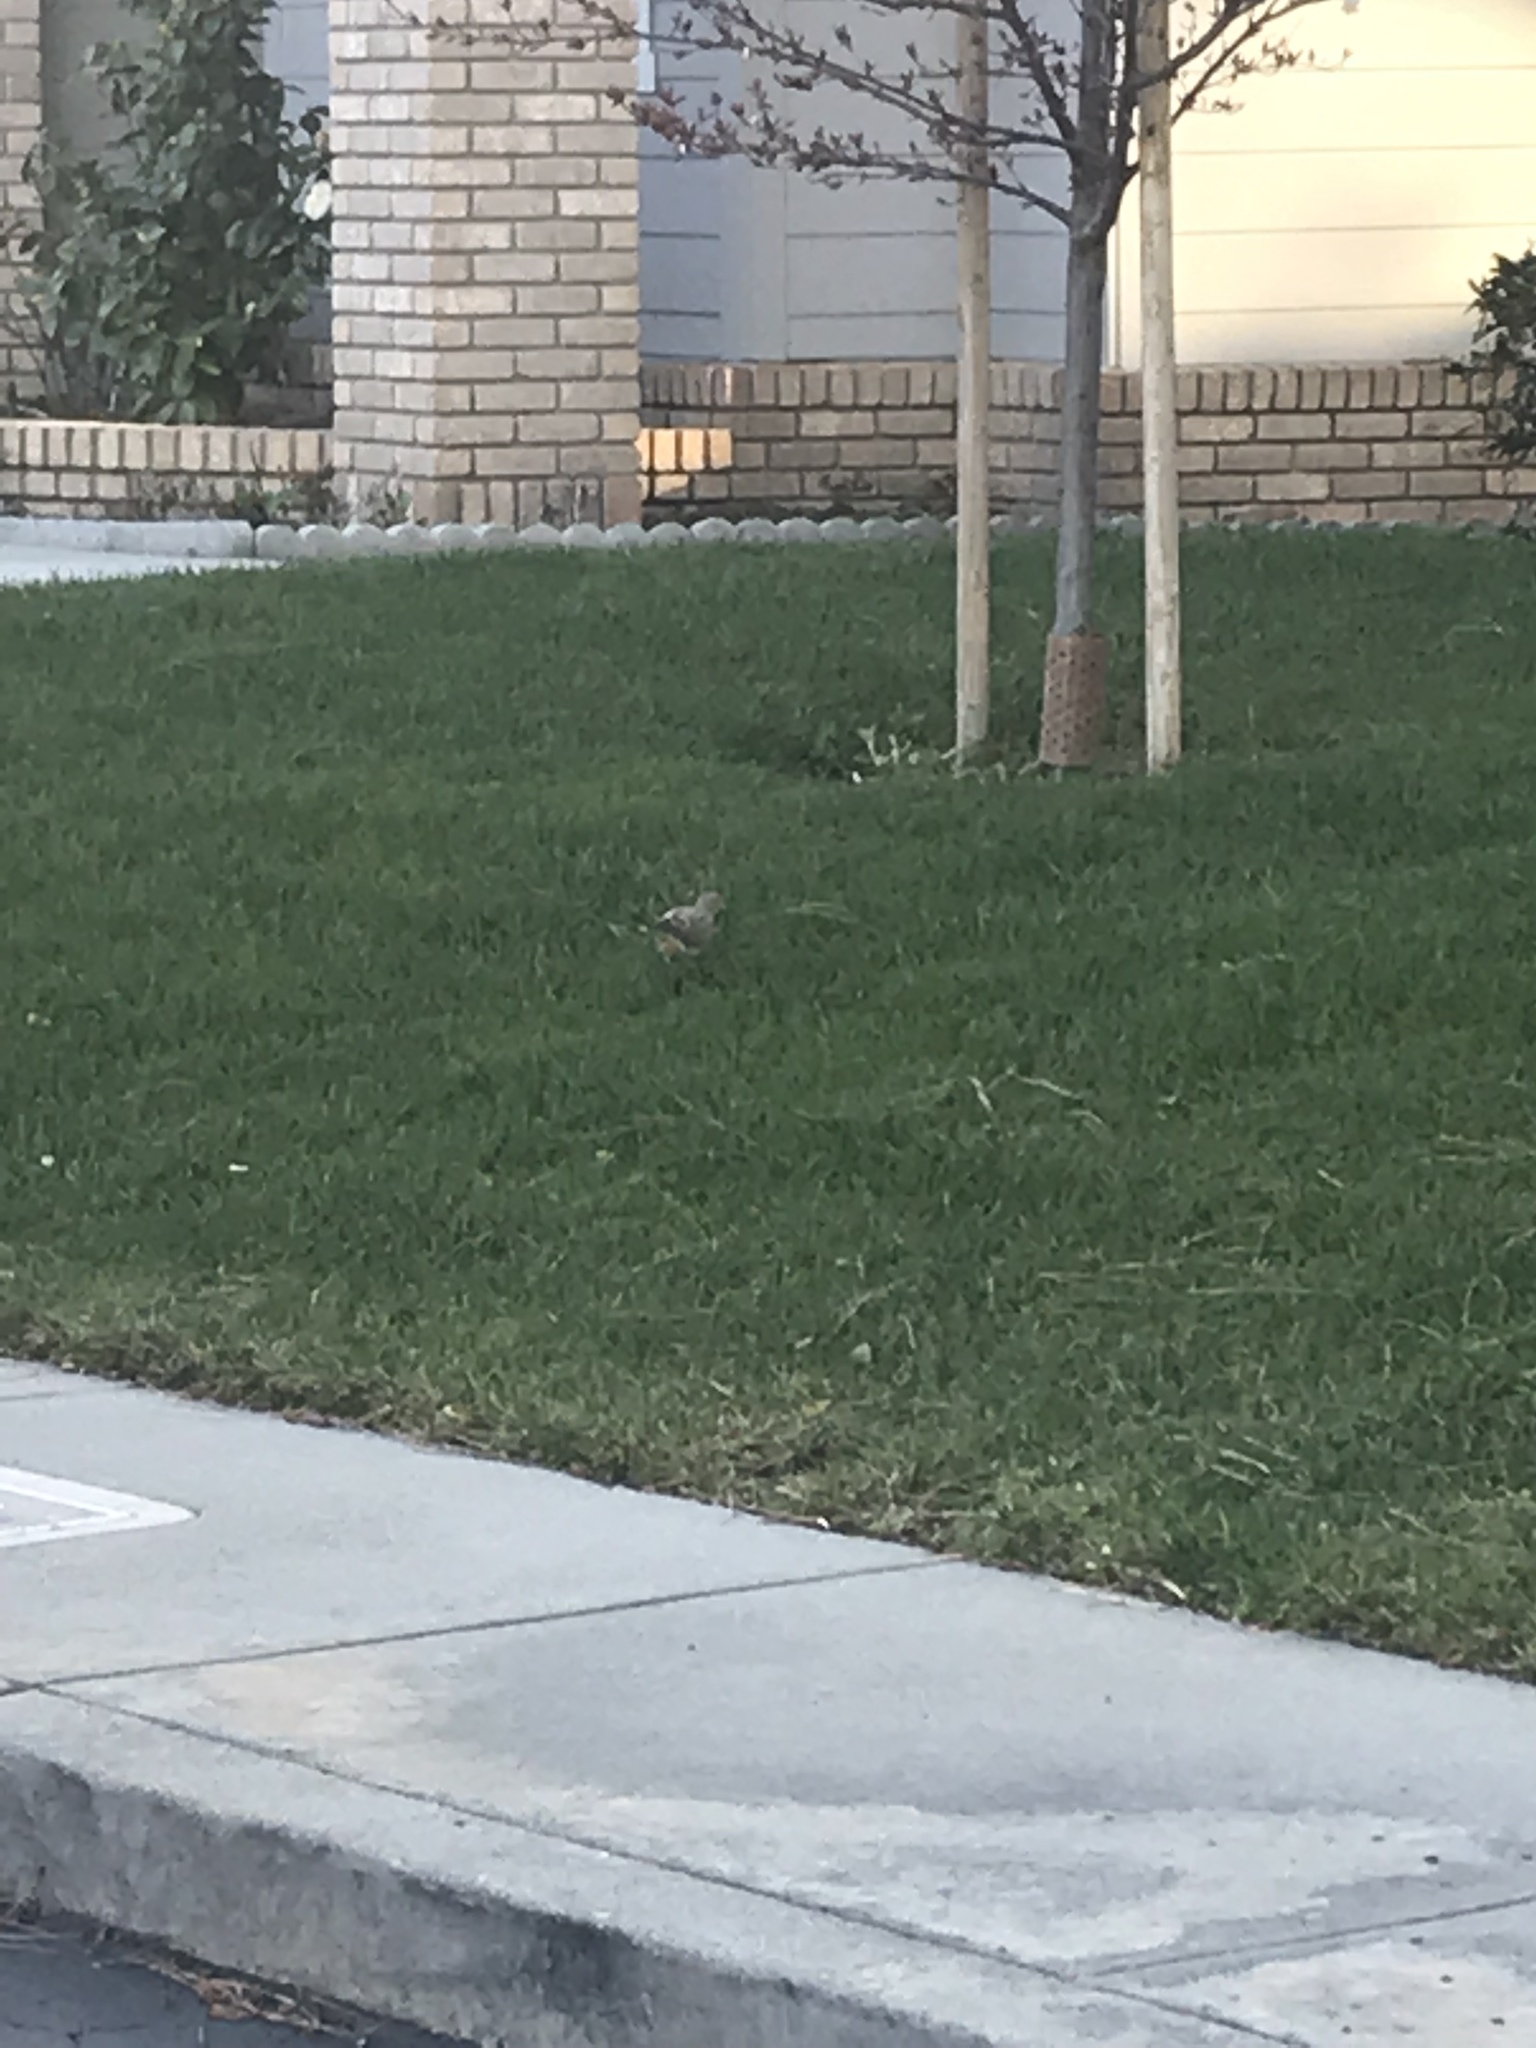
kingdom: Animalia
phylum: Chordata
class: Aves
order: Columbiformes
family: Columbidae
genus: Zenaida
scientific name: Zenaida macroura
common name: Mourning dove
